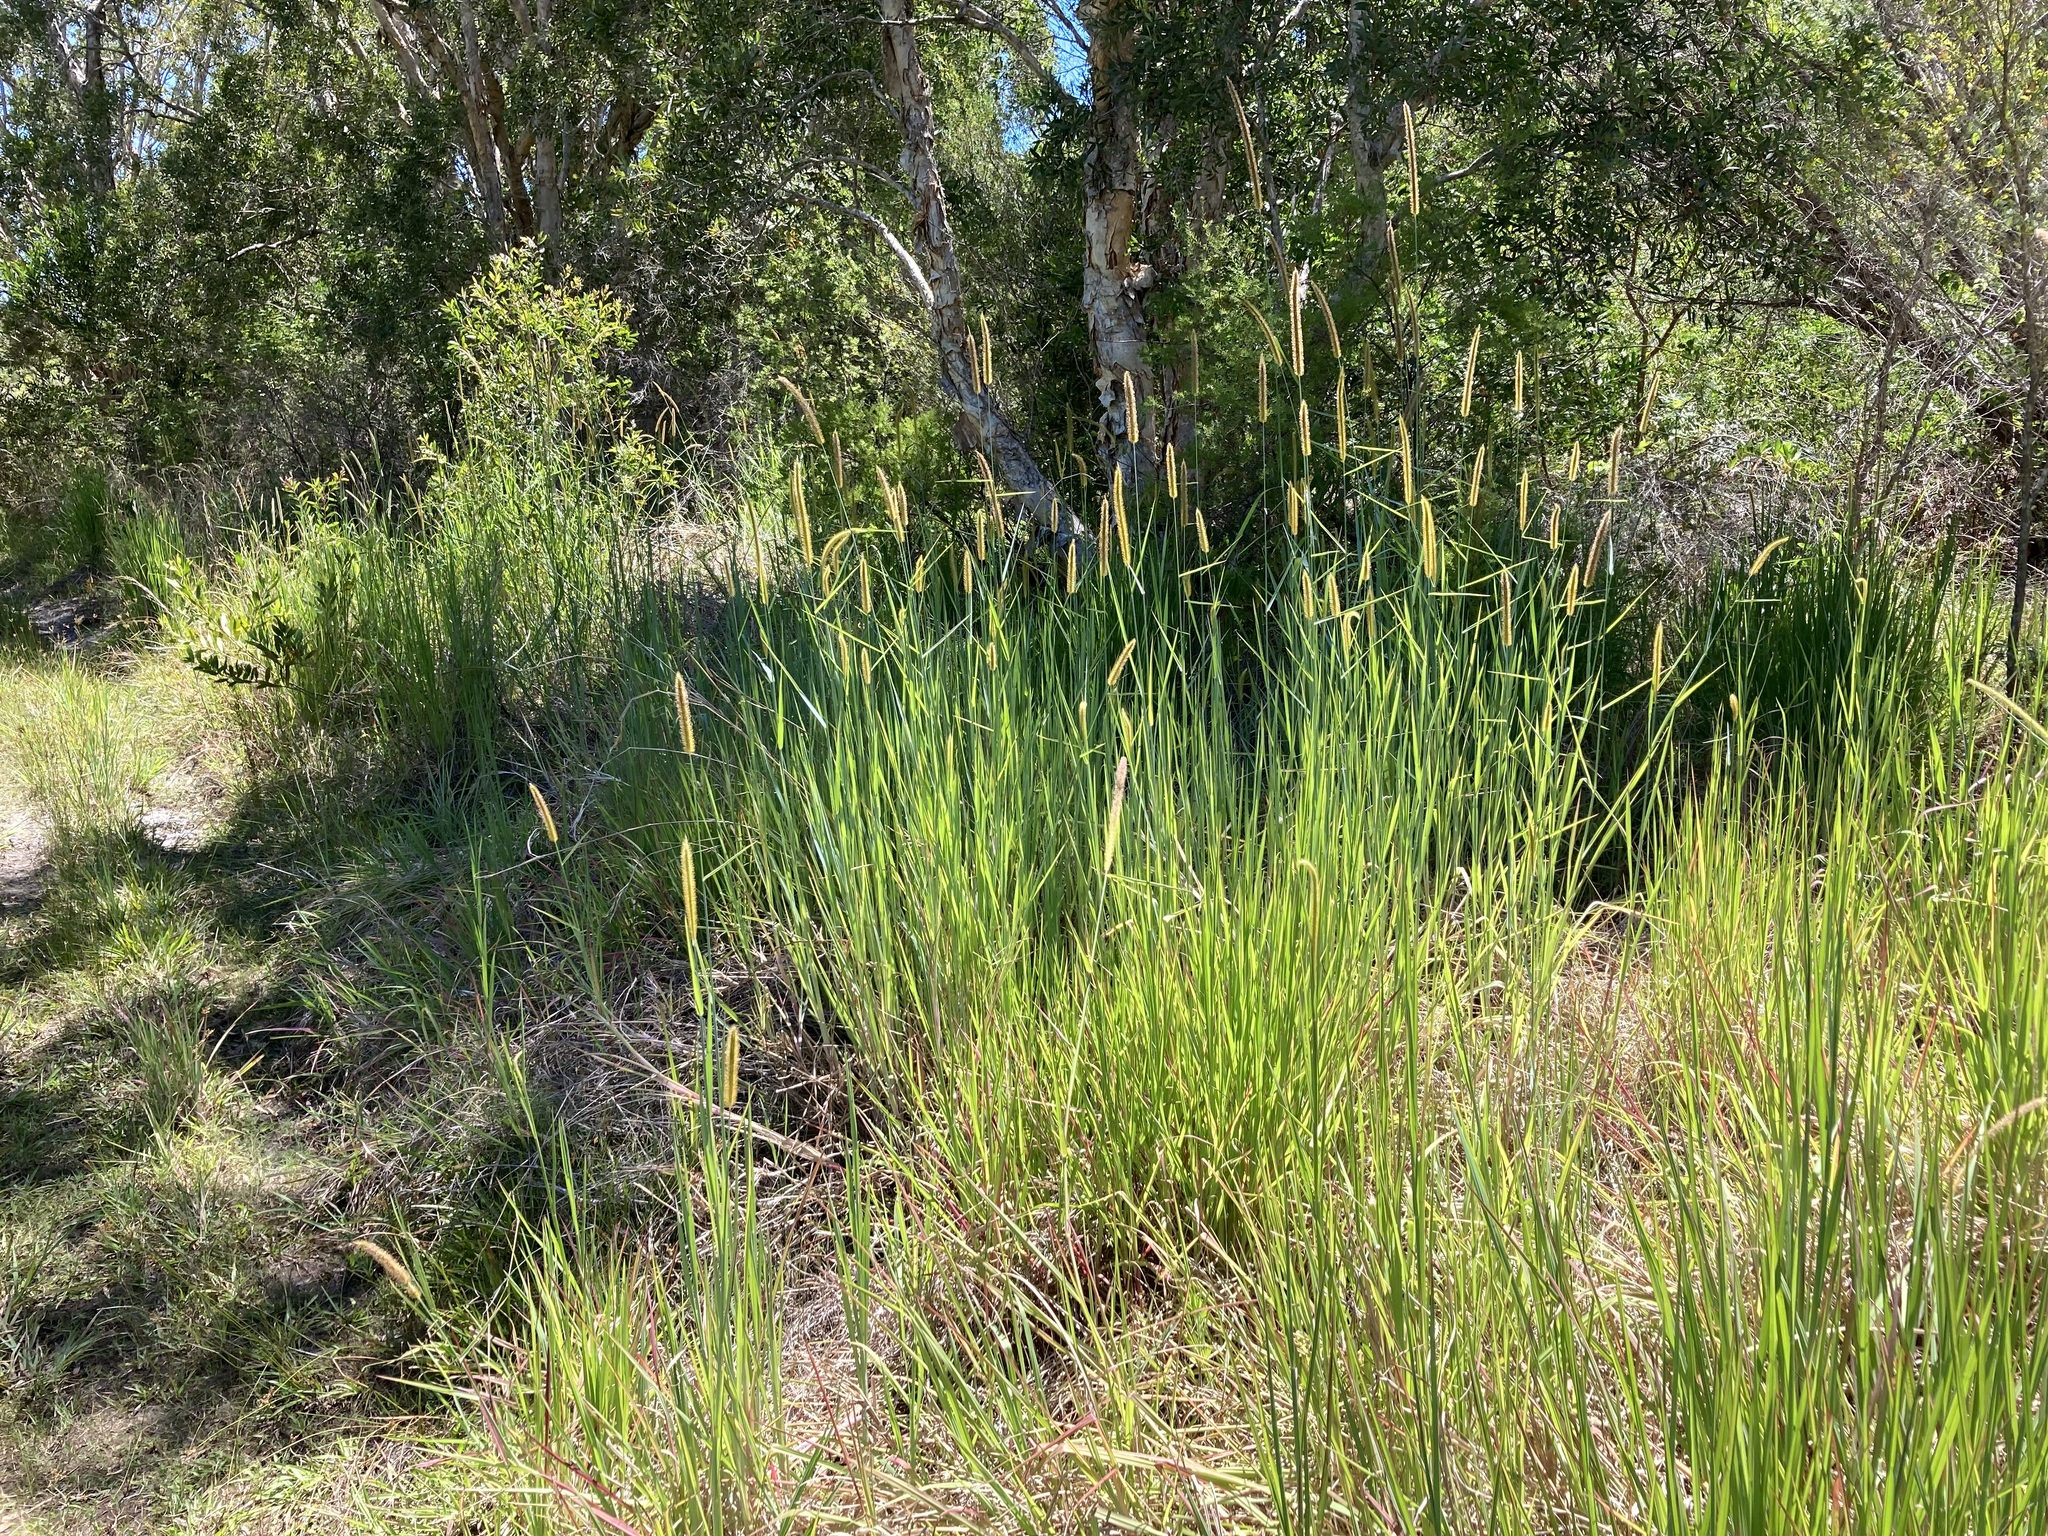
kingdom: Plantae
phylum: Tracheophyta
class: Liliopsida
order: Poales
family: Poaceae
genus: Setaria
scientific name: Setaria sphacelata
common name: African bristlegrass
